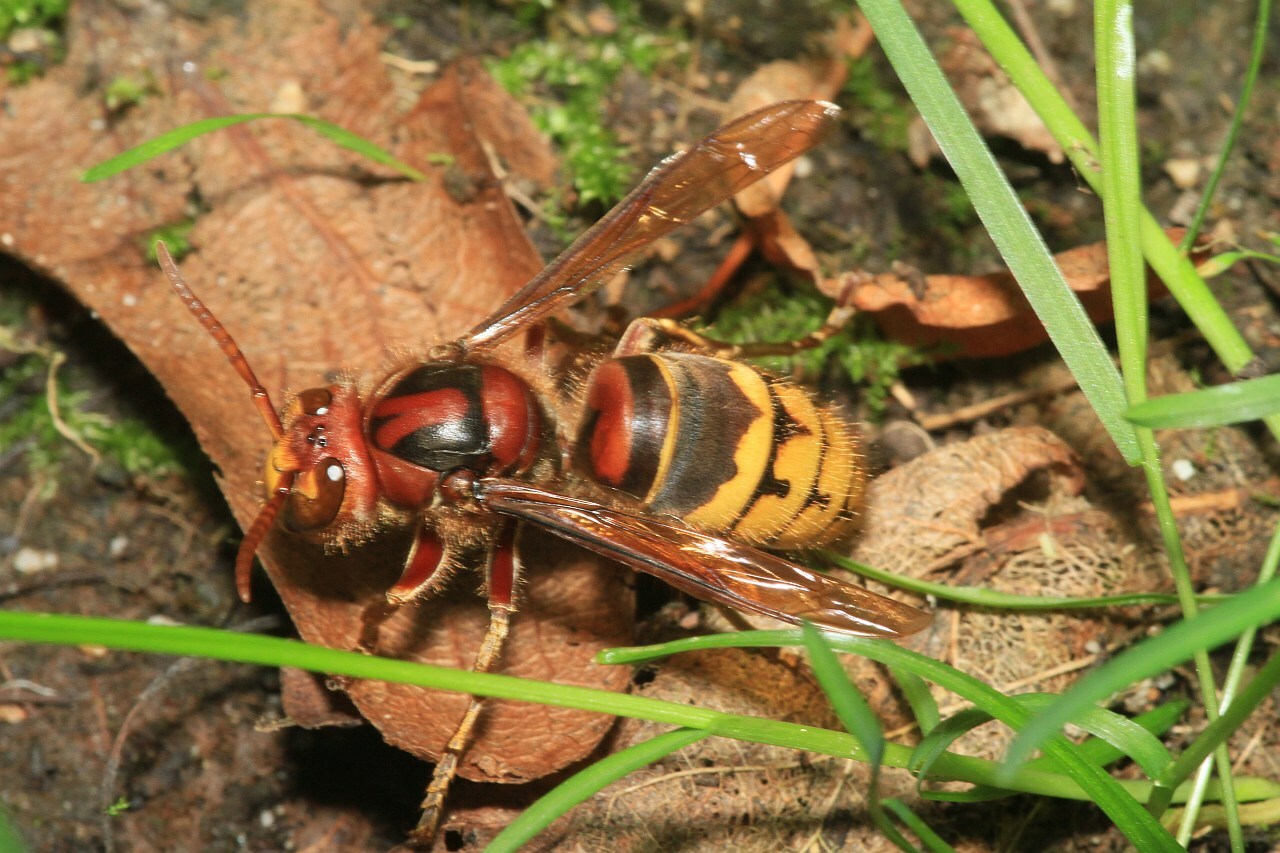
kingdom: Animalia
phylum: Arthropoda
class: Insecta
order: Hymenoptera
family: Vespidae
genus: Vespa
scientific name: Vespa crabro
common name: Hornet
